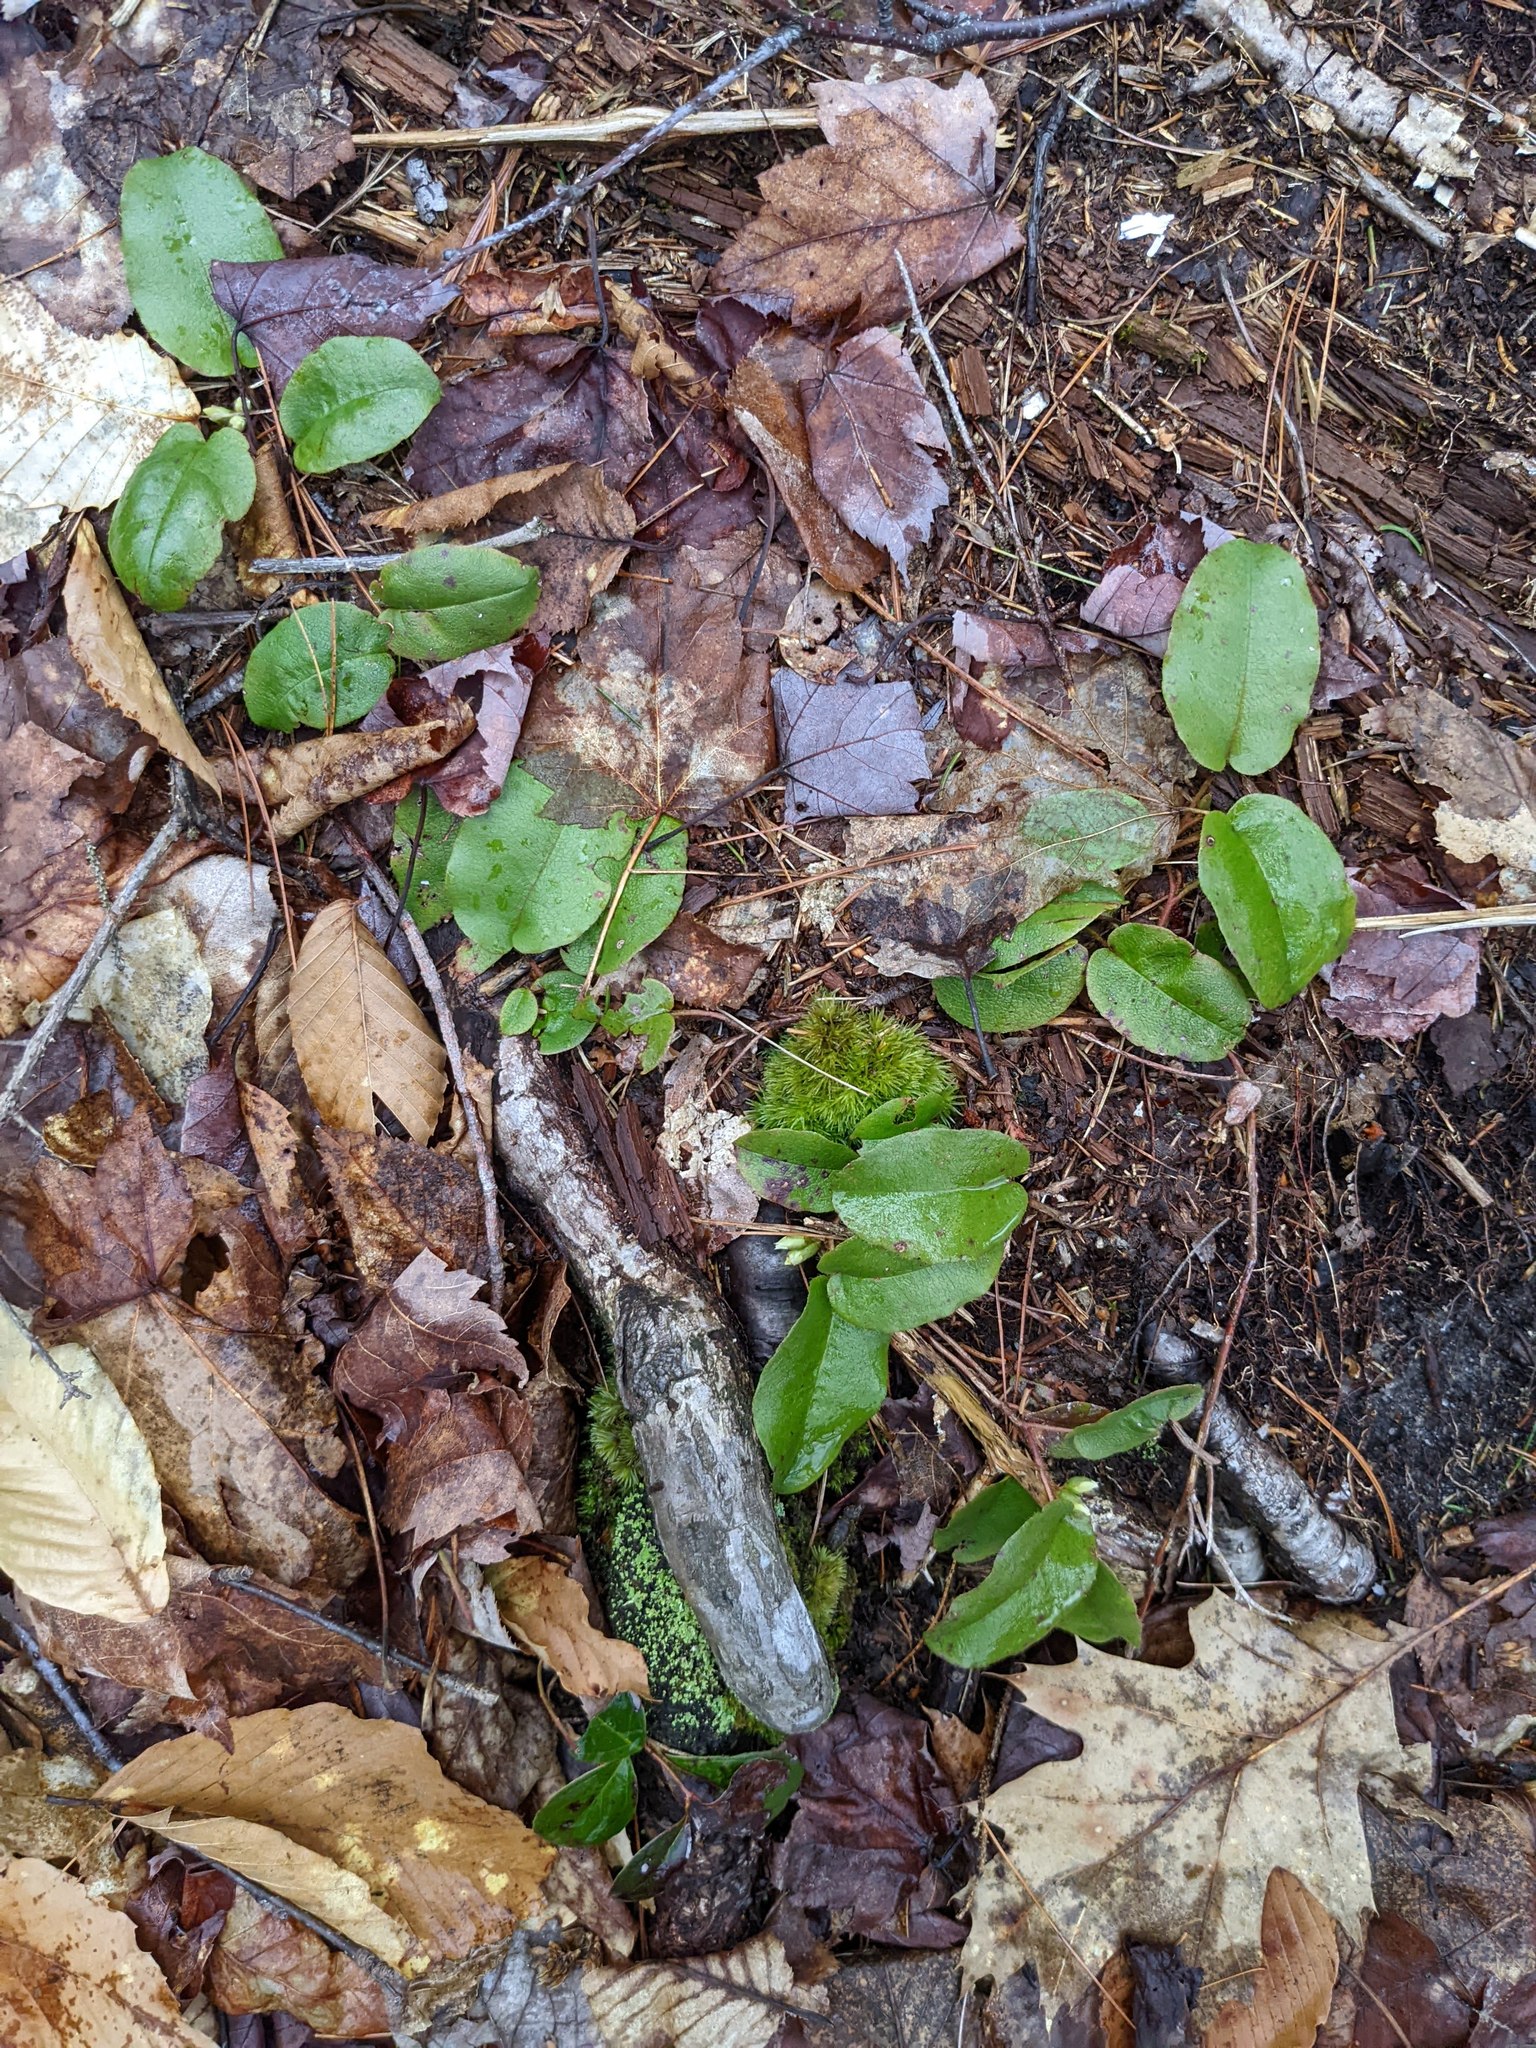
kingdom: Plantae
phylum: Tracheophyta
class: Magnoliopsida
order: Ericales
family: Ericaceae
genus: Epigaea
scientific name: Epigaea repens
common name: Gravelroot
